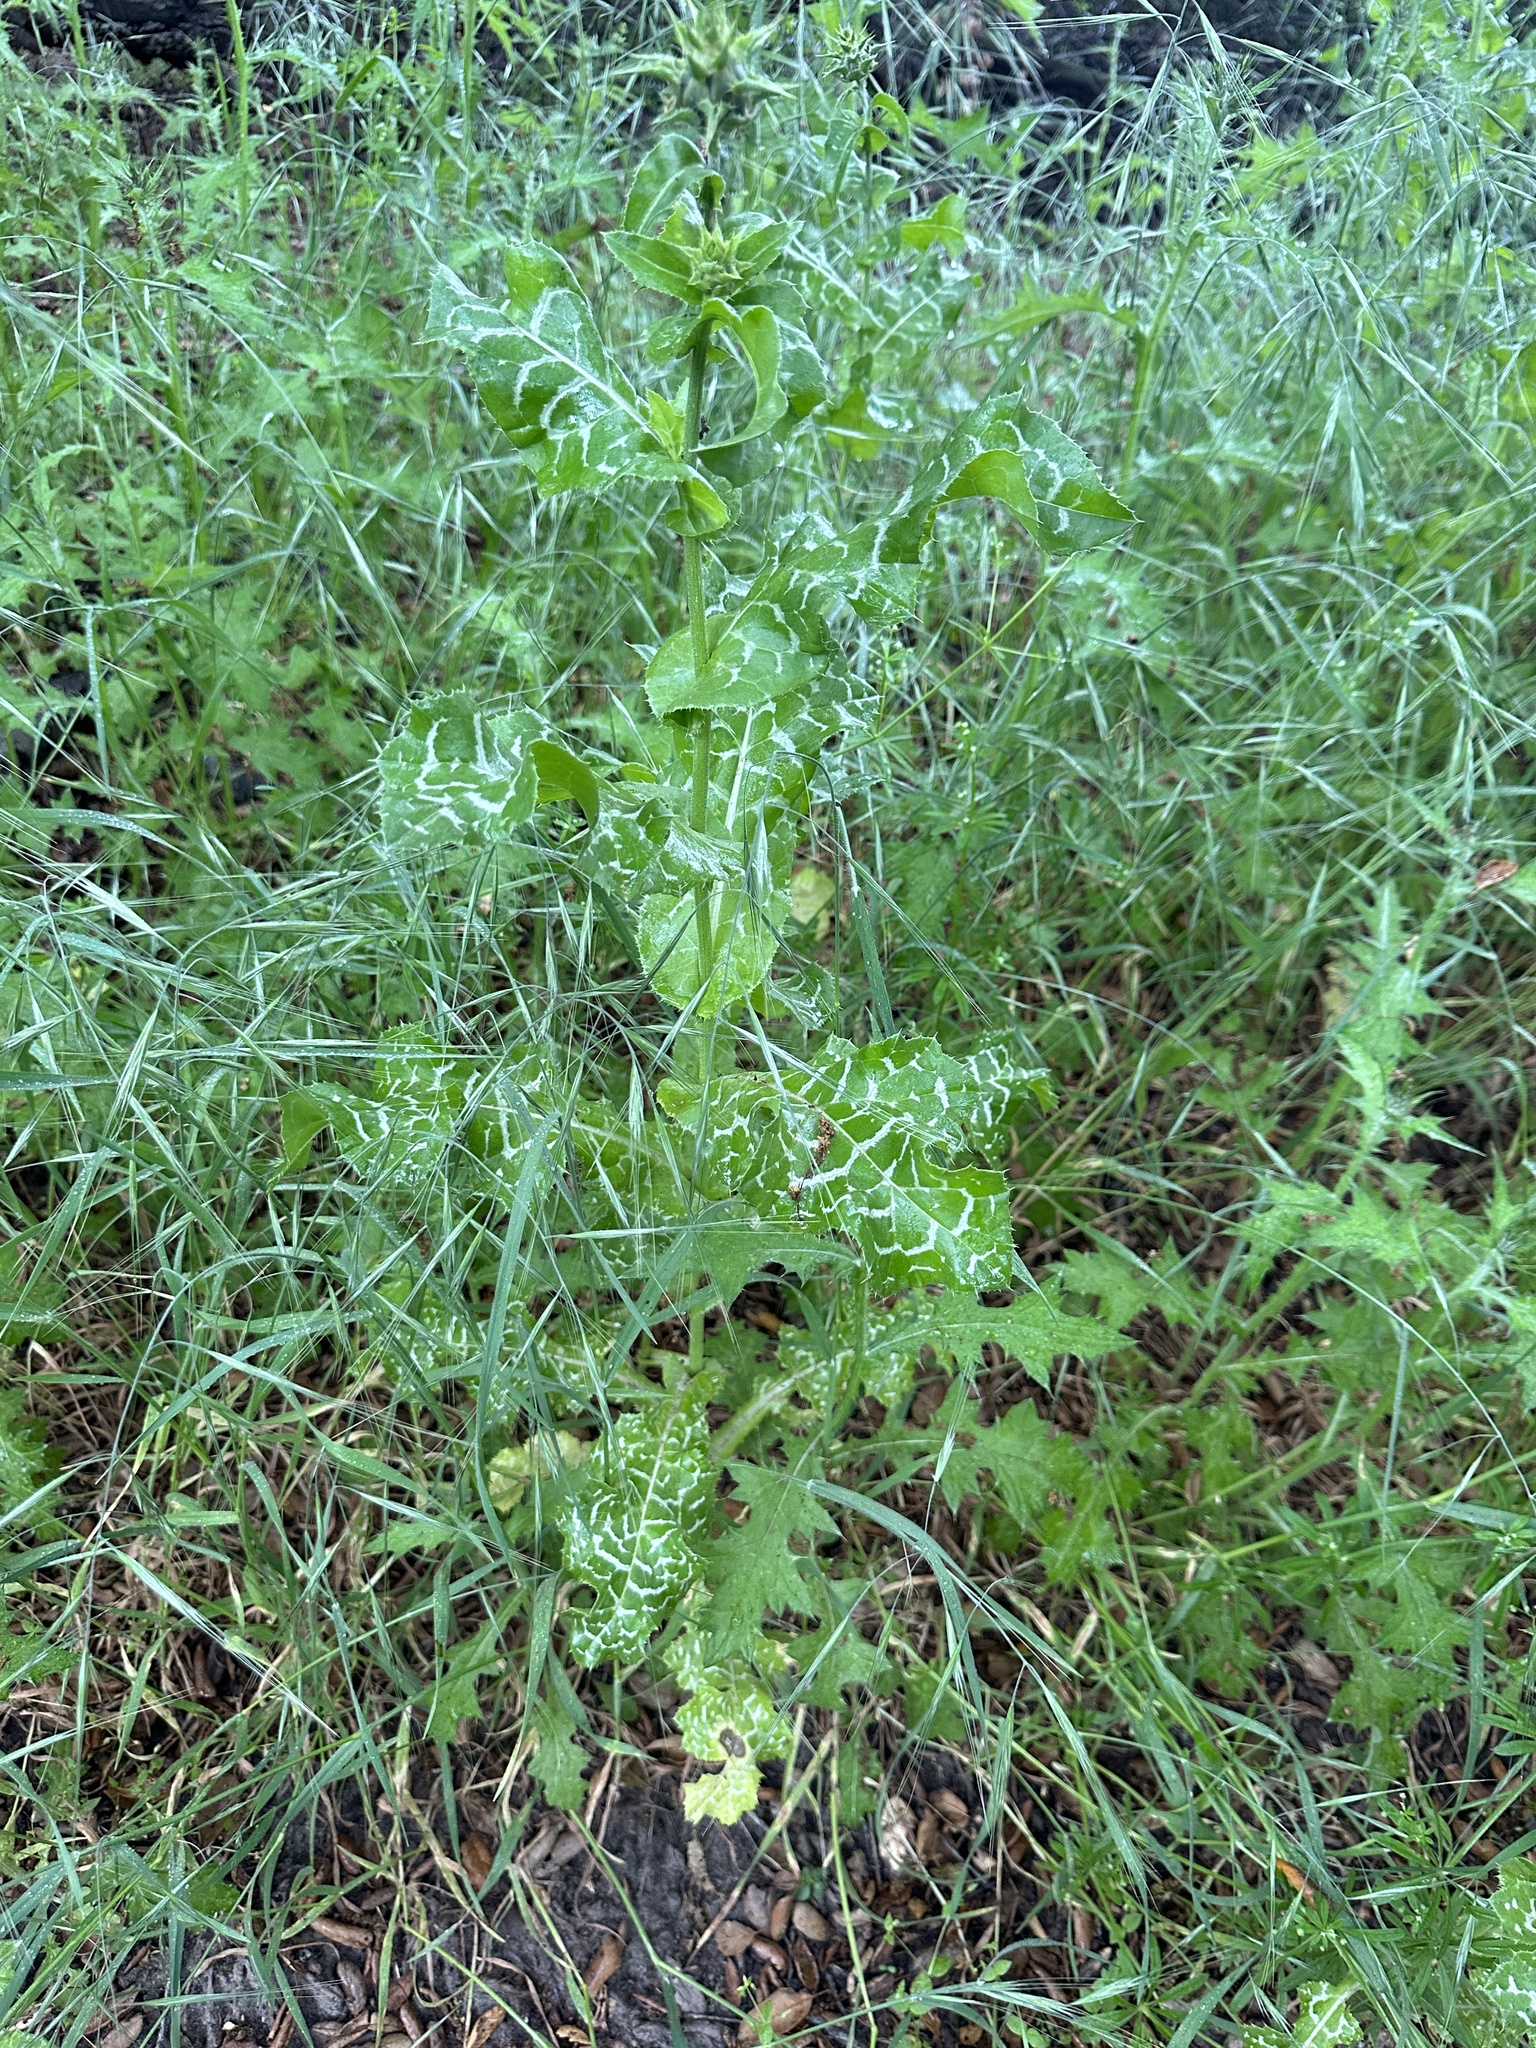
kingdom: Plantae
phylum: Tracheophyta
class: Magnoliopsida
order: Asterales
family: Asteraceae
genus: Silybum
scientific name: Silybum marianum
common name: Milk thistle
